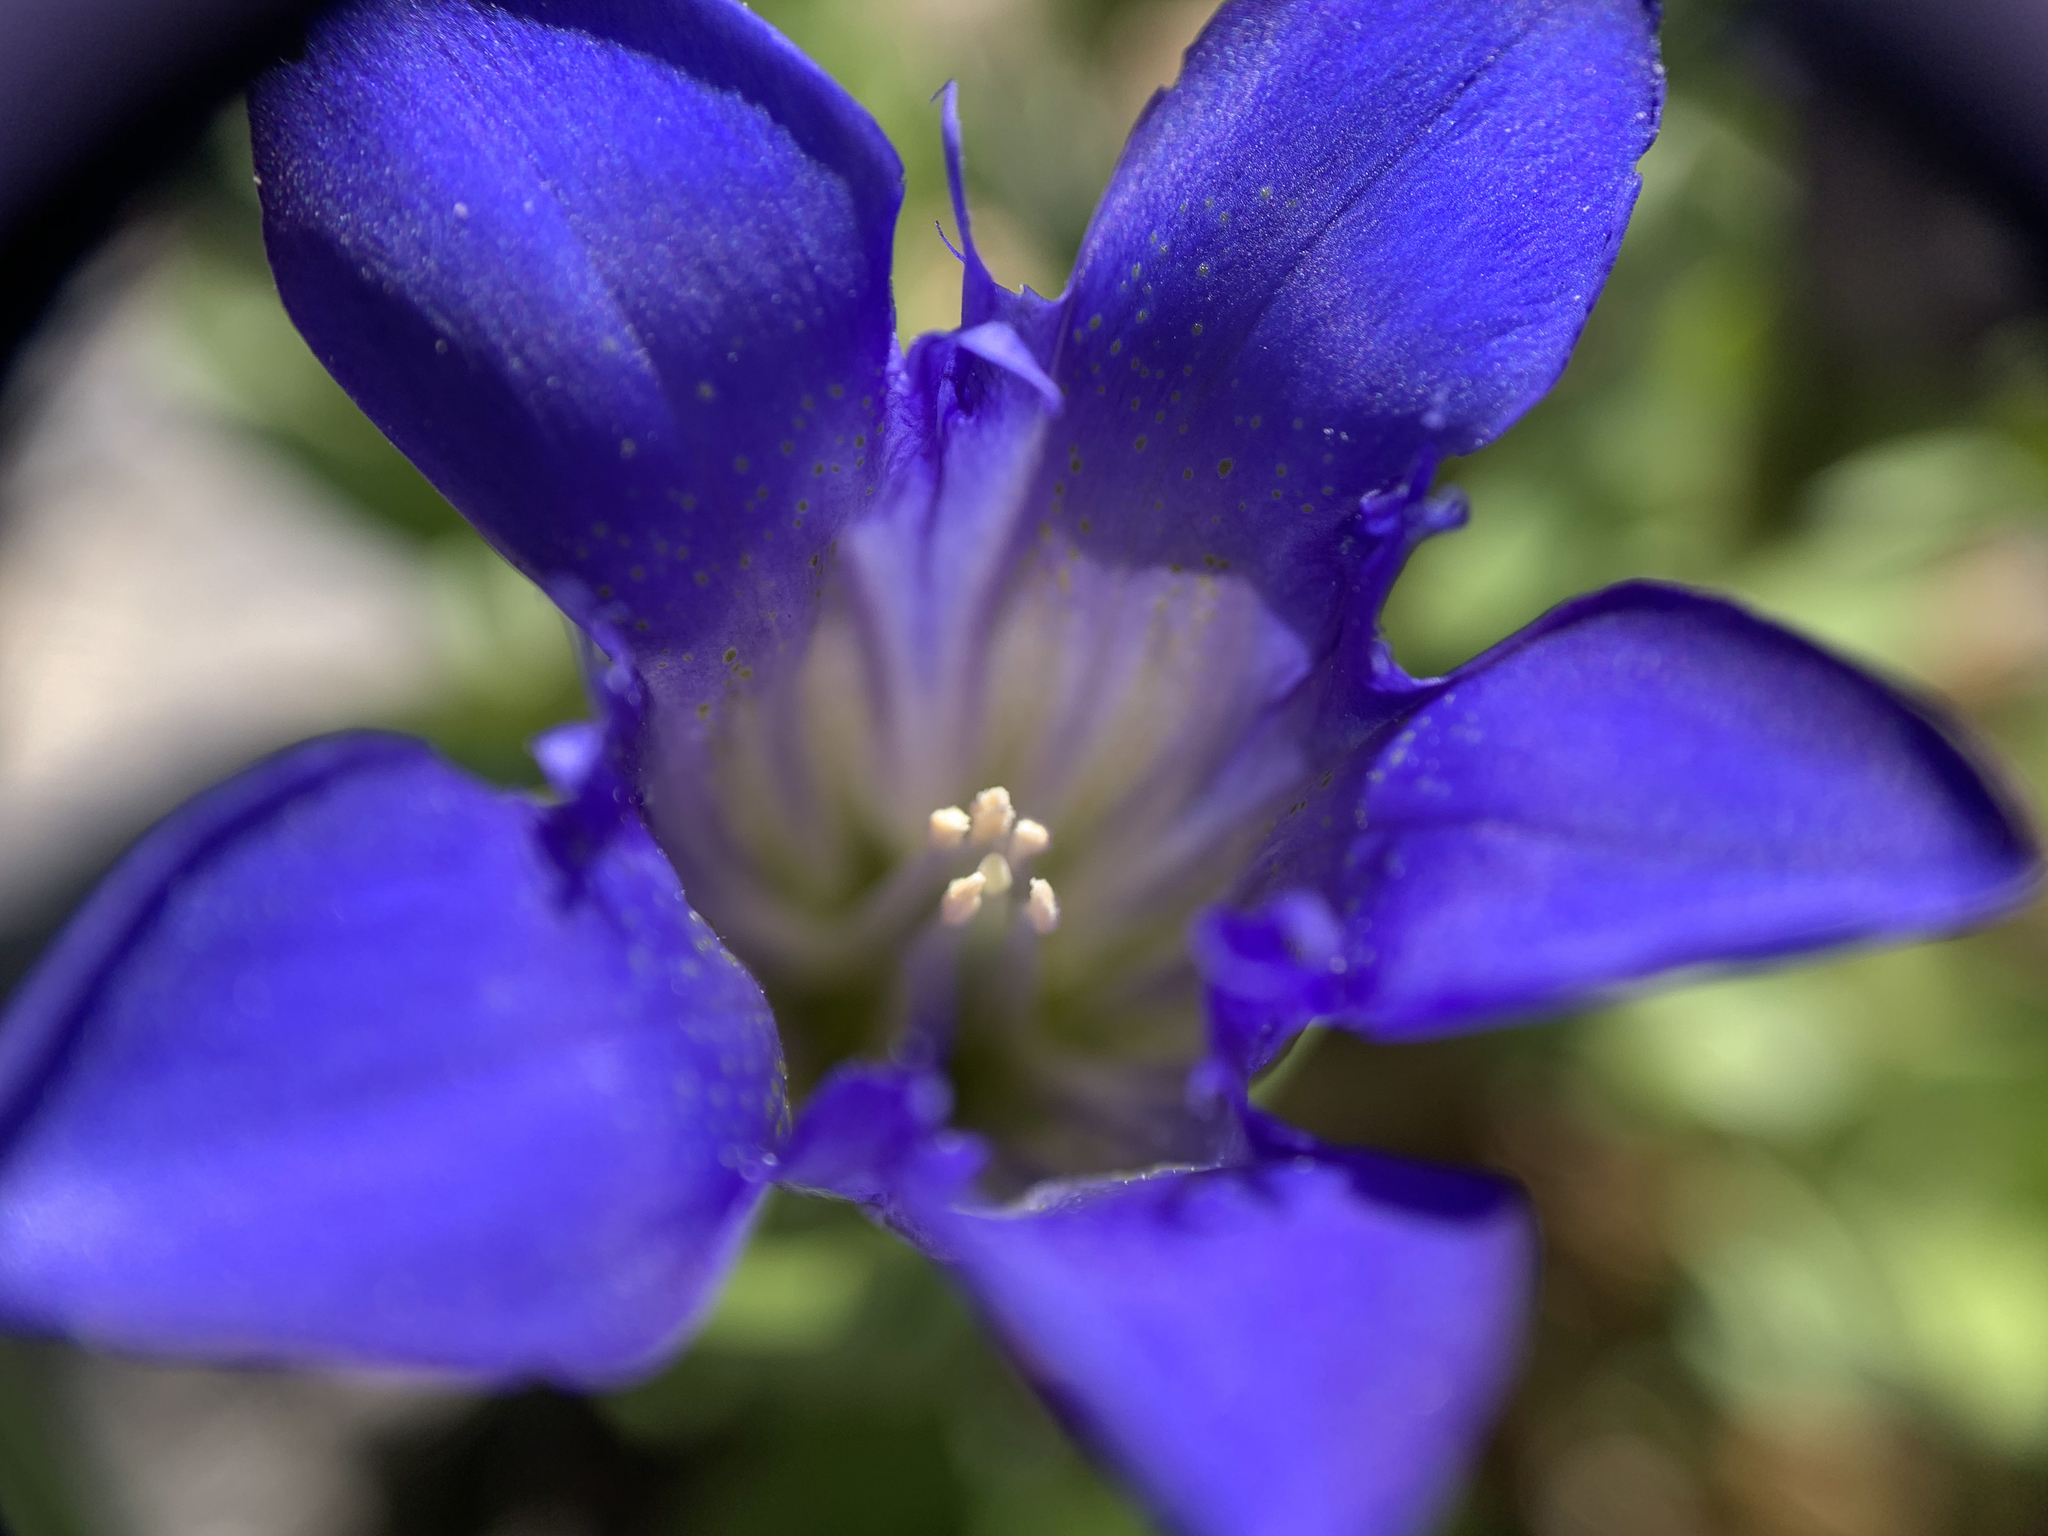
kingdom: Plantae
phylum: Tracheophyta
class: Magnoliopsida
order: Gentianales
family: Gentianaceae
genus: Gentiana
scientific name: Gentiana calycosa
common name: Rainier pleated gentian
